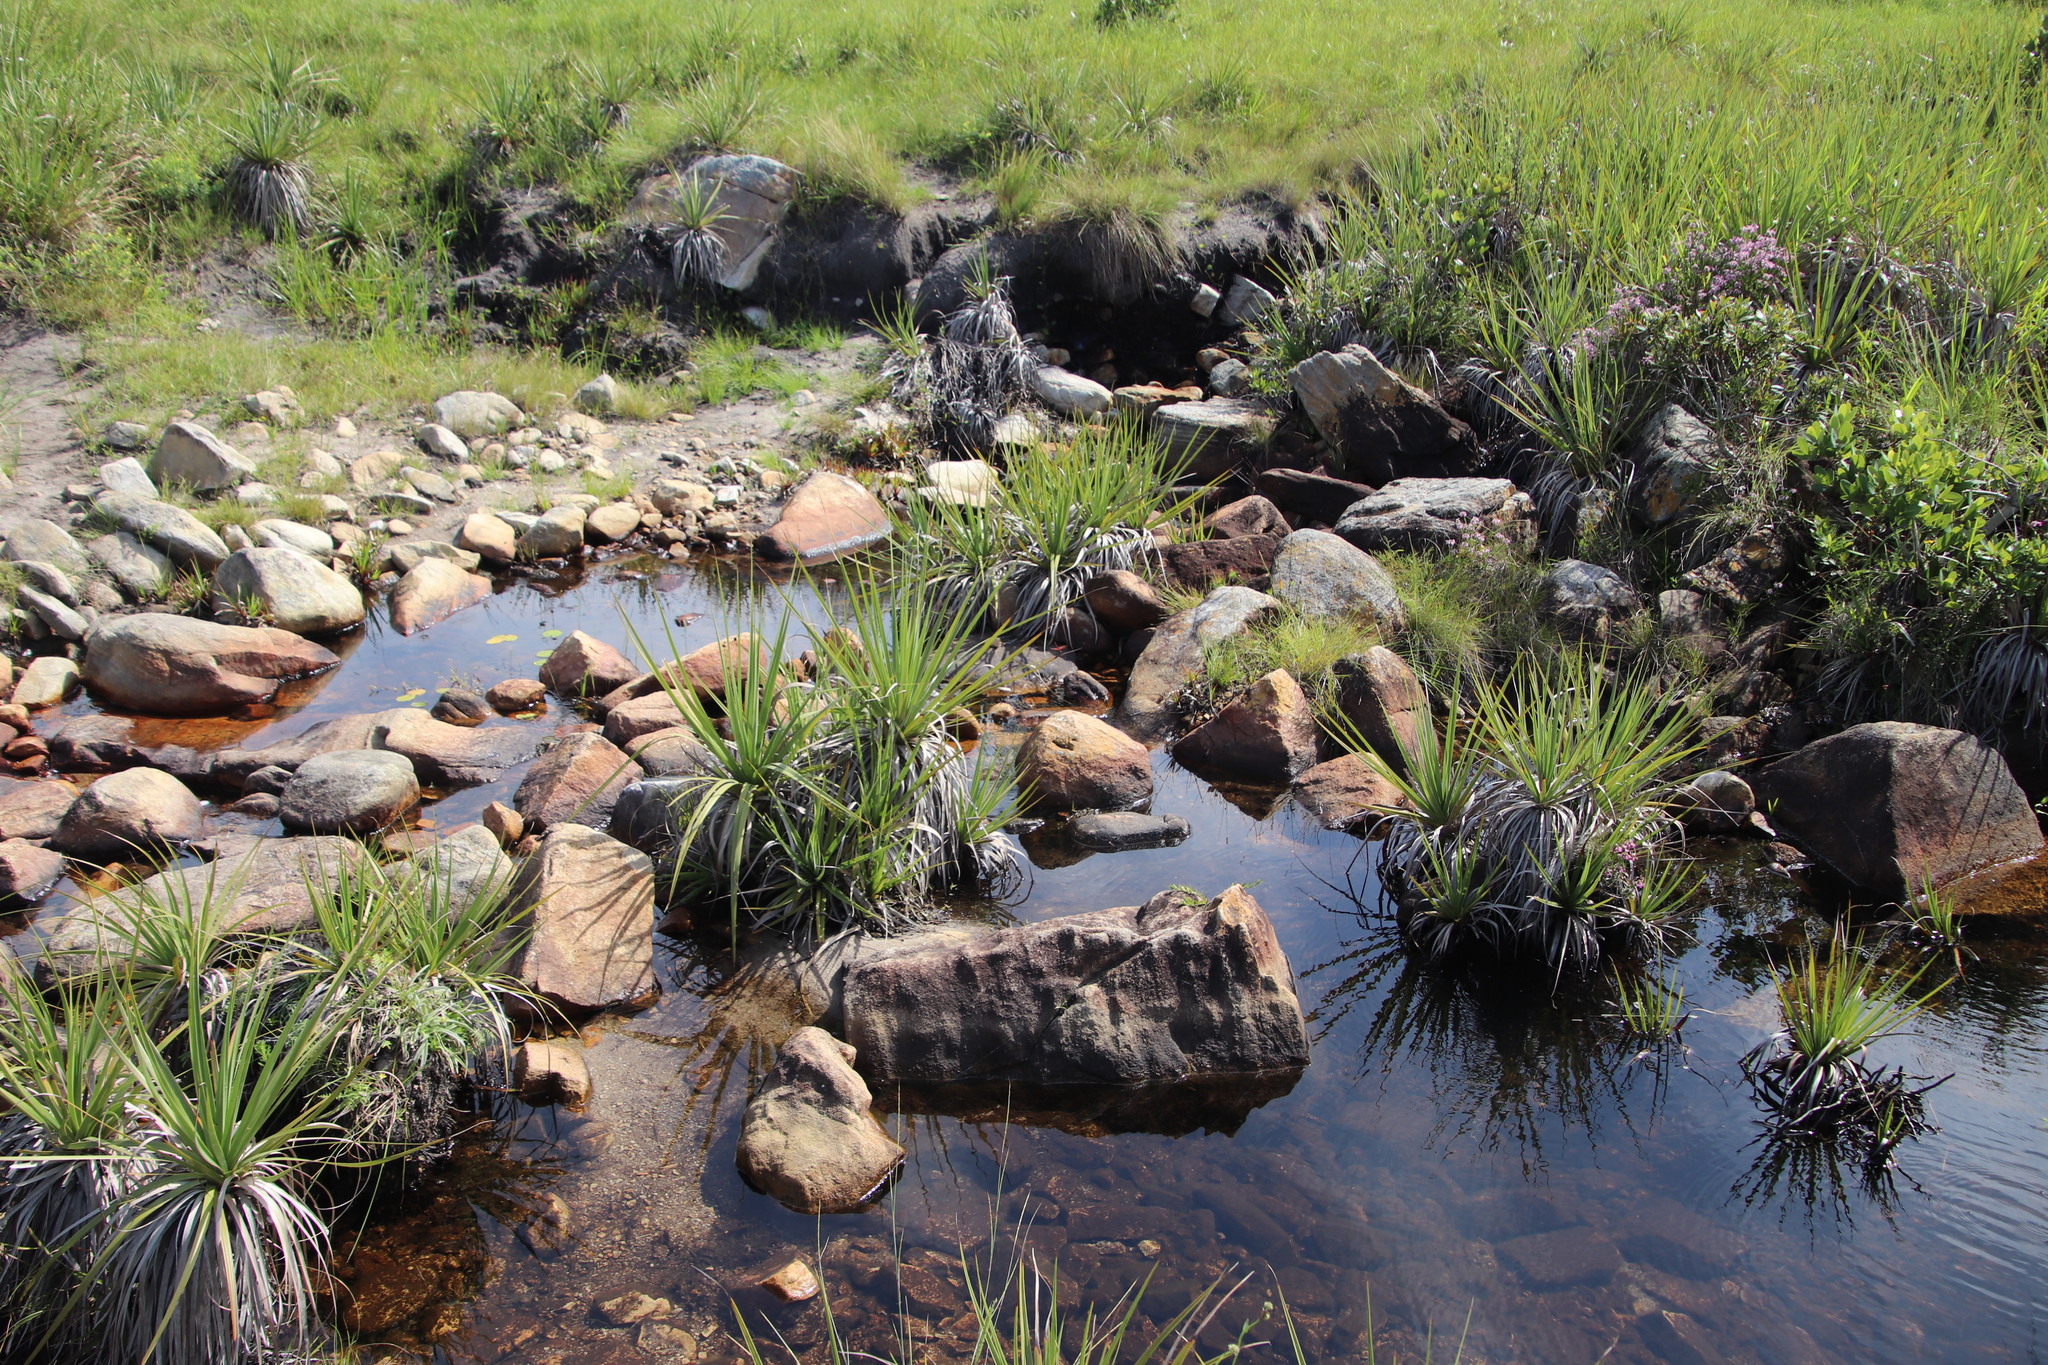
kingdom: Plantae
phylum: Tracheophyta
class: Liliopsida
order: Poales
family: Thurniaceae
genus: Prionium
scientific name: Prionium serratum
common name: Palmiet
